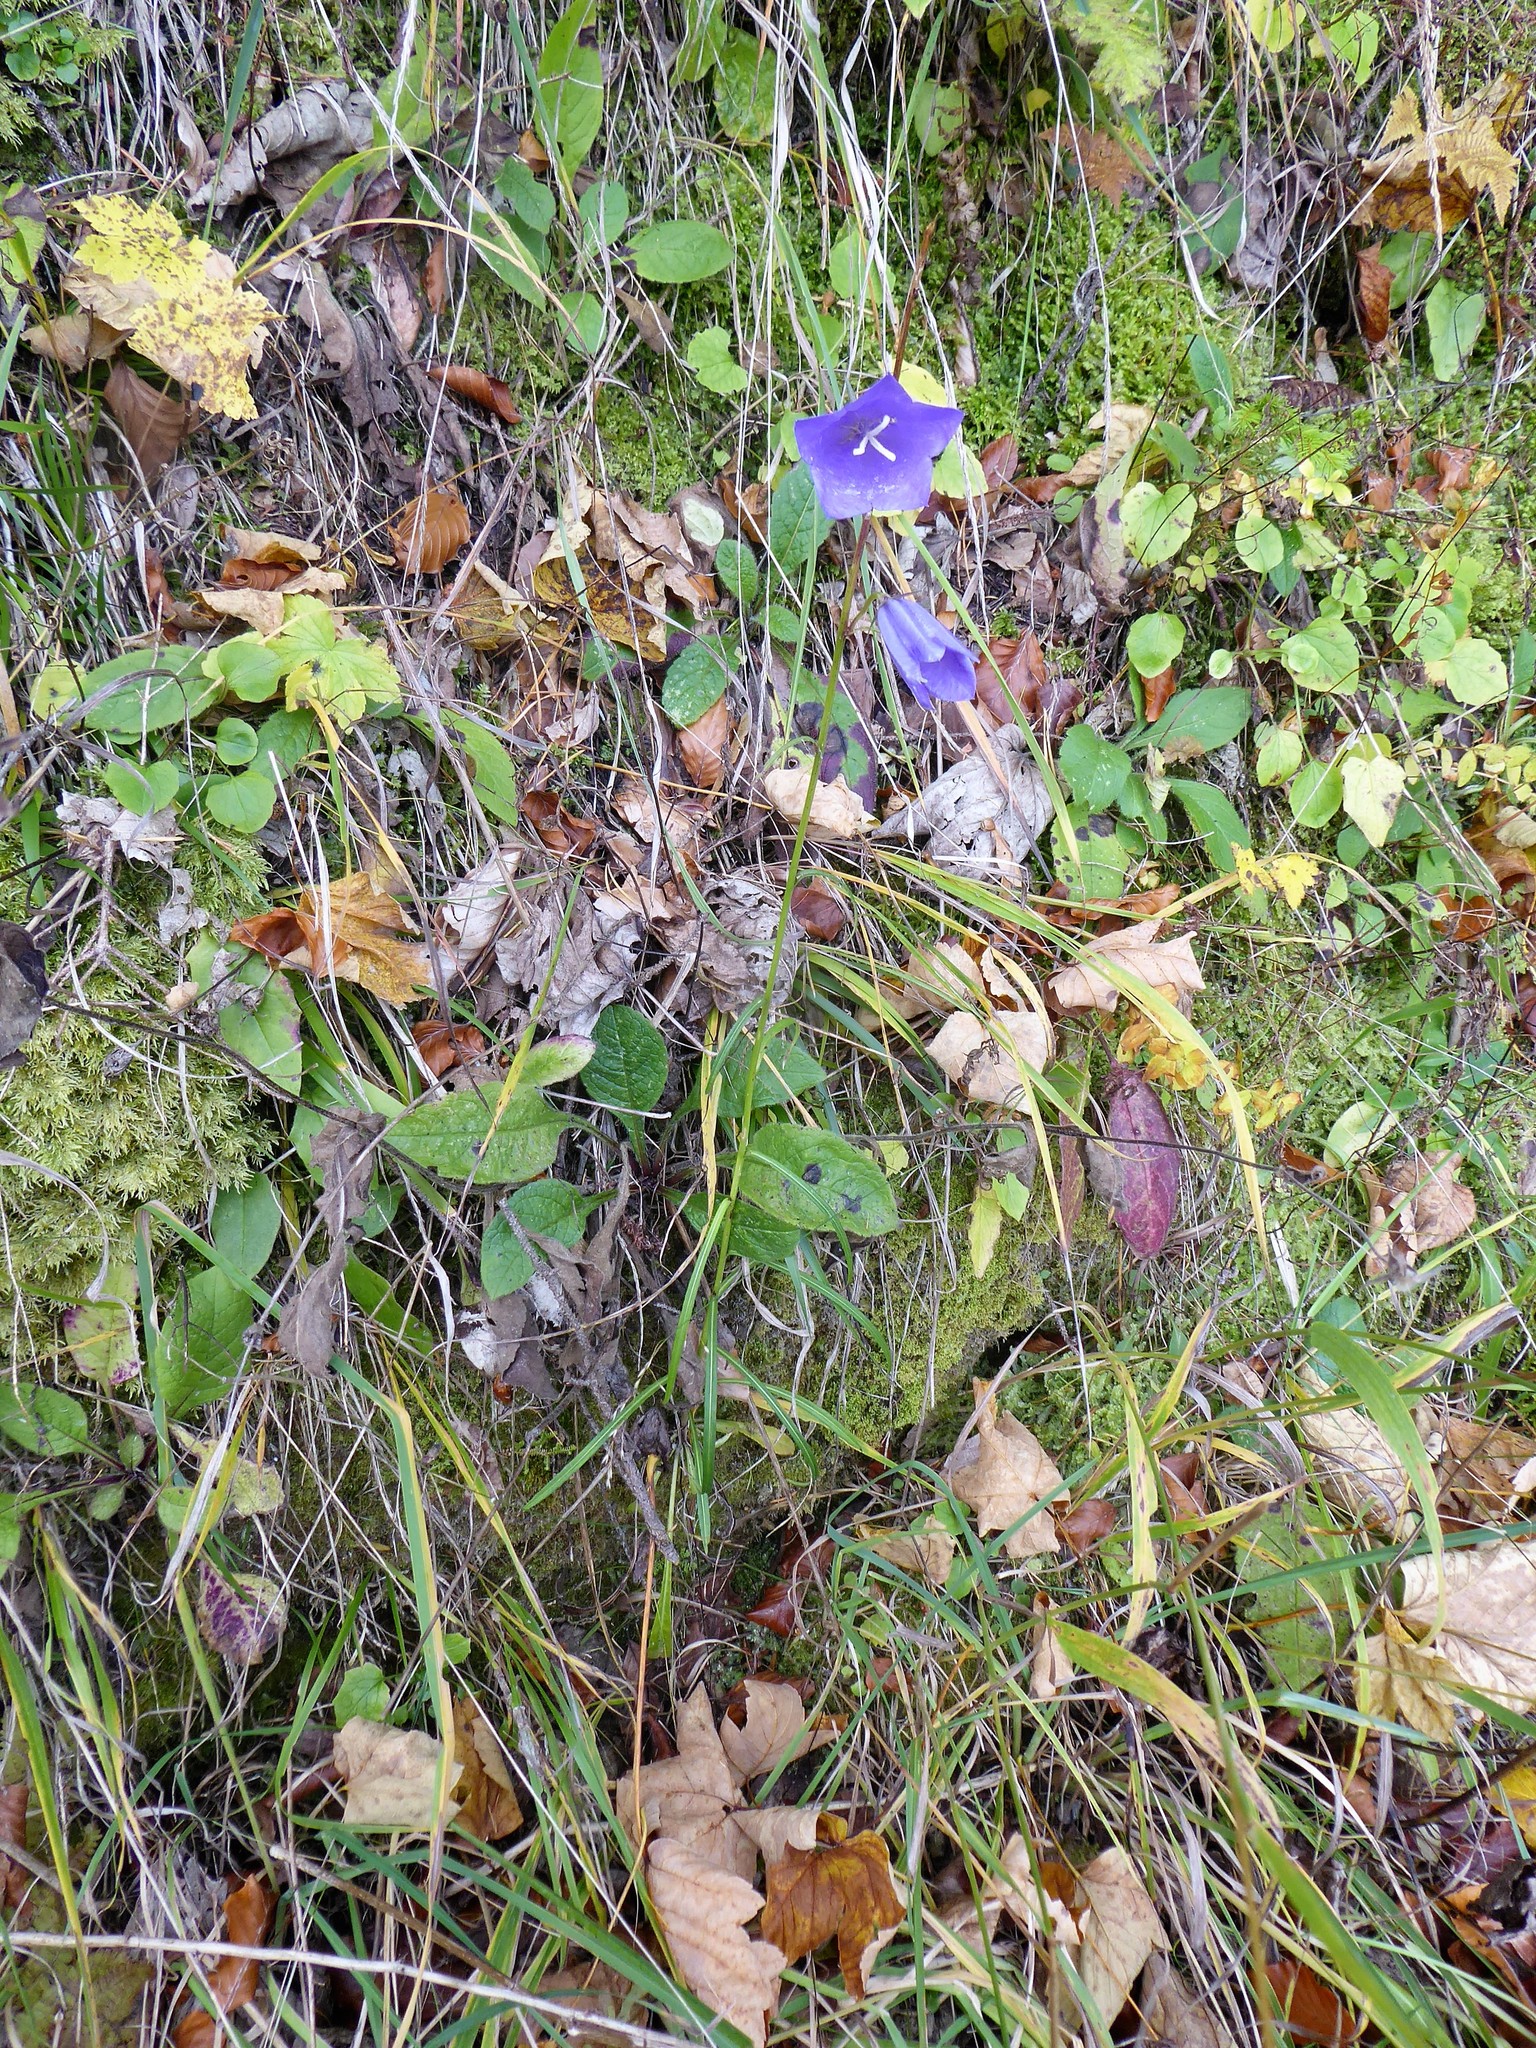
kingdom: Plantae
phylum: Tracheophyta
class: Magnoliopsida
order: Asterales
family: Campanulaceae
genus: Campanula
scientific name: Campanula persicifolia
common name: Peach-leaved bellflower
